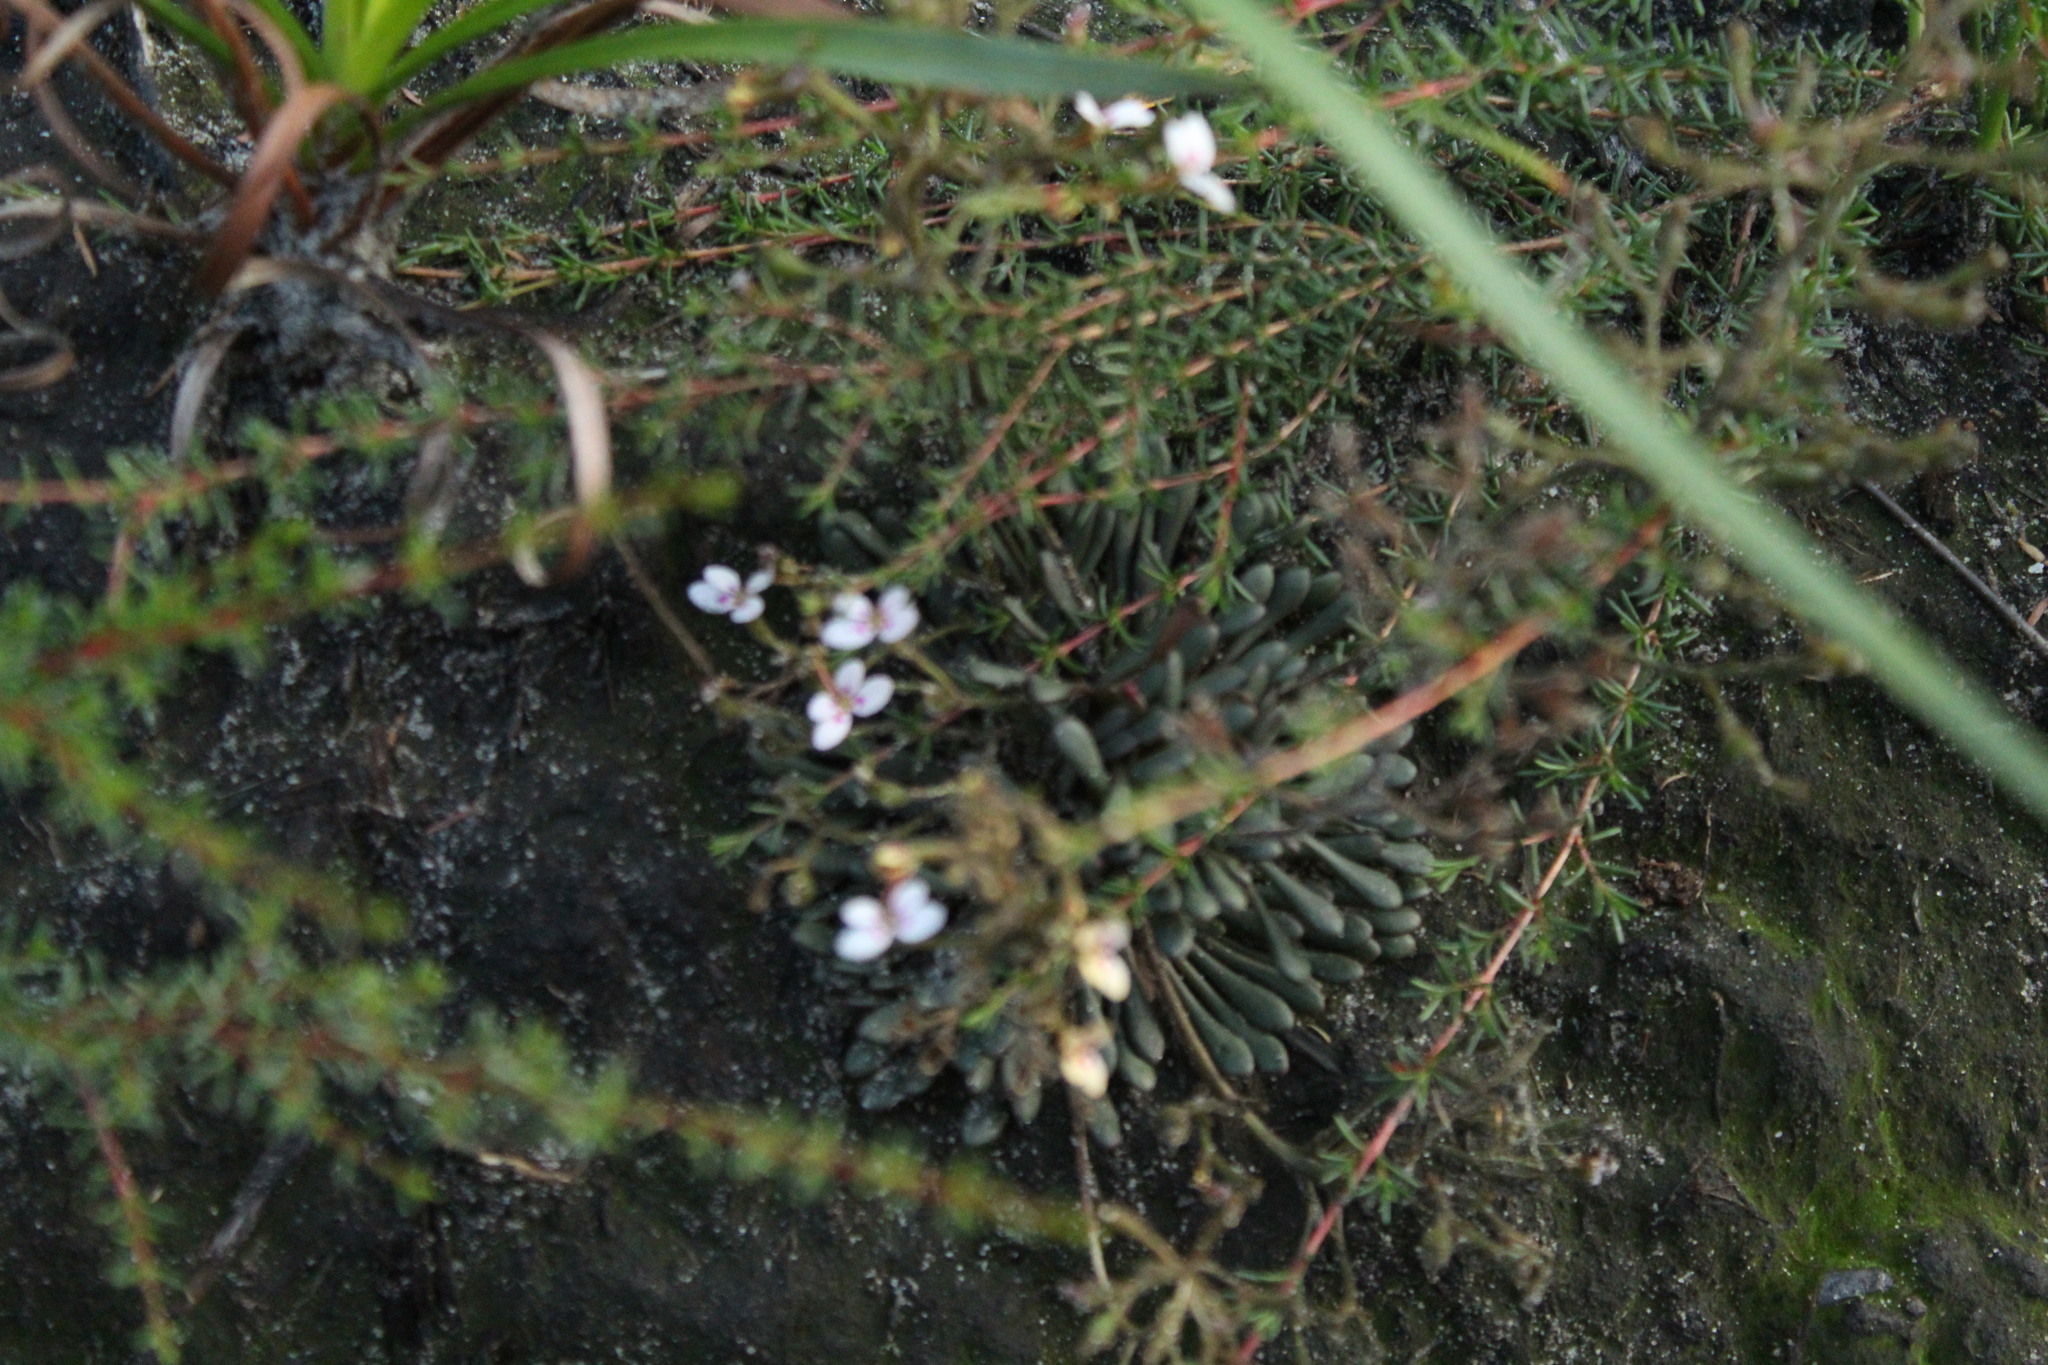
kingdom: Plantae
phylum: Tracheophyta
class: Magnoliopsida
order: Asterales
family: Stylidiaceae
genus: Stylidium
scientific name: Stylidium assimile
